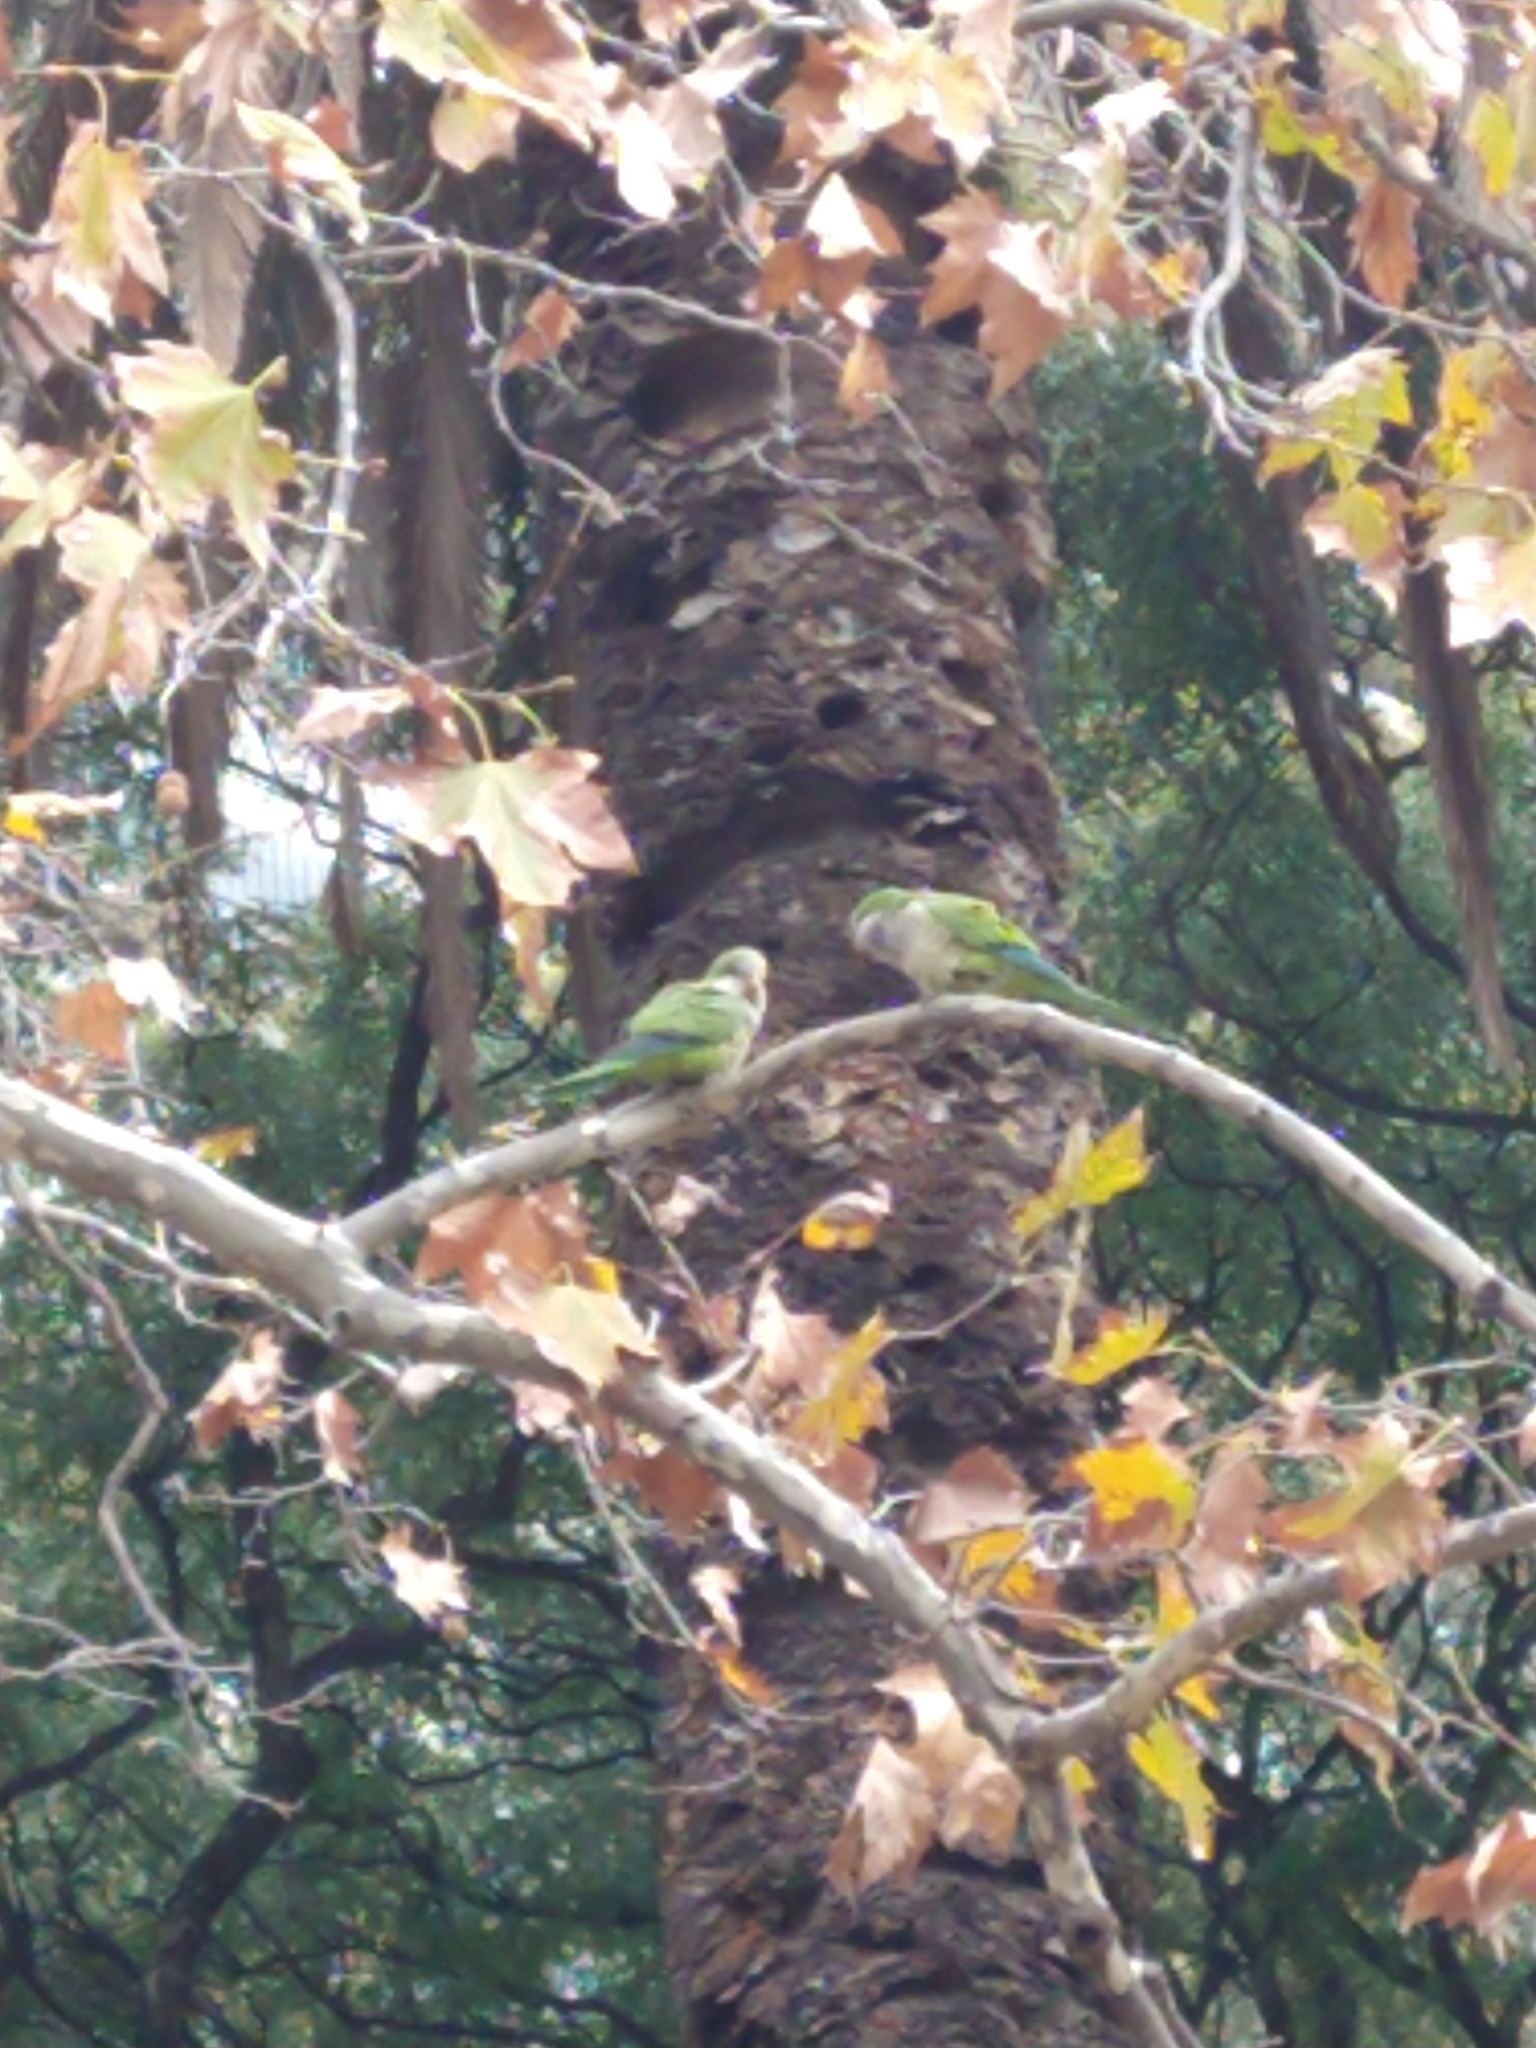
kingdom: Animalia
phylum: Chordata
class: Aves
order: Psittaciformes
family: Psittacidae
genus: Myiopsitta
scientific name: Myiopsitta monachus
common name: Monk parakeet
